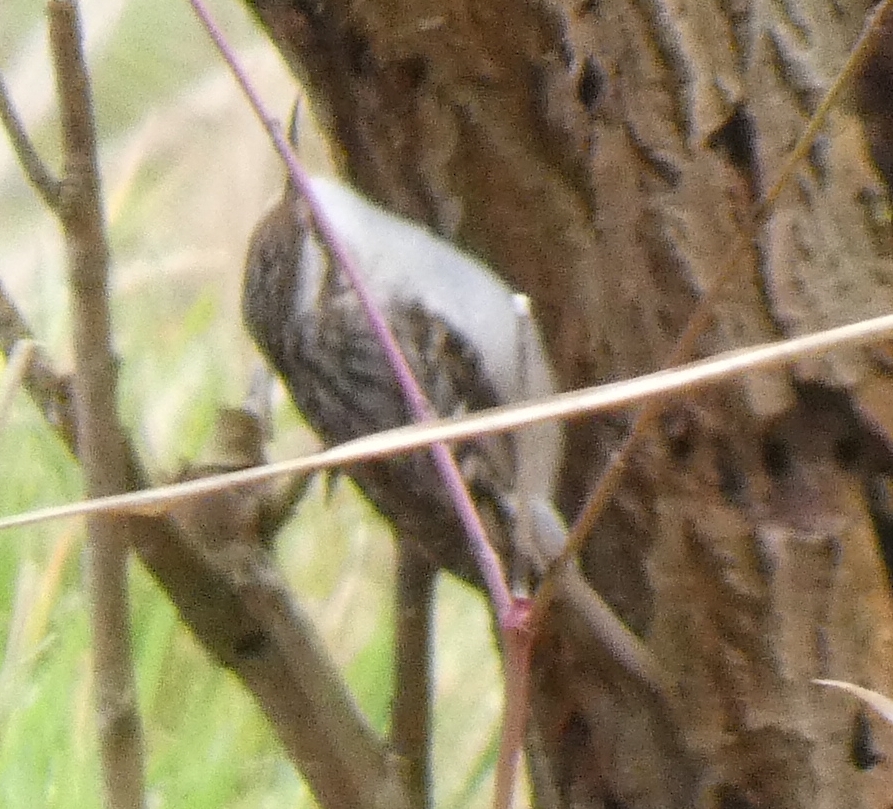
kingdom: Animalia
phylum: Chordata
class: Aves
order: Passeriformes
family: Certhiidae
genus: Certhia
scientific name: Certhia brachydactyla
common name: Short-toed treecreeper
